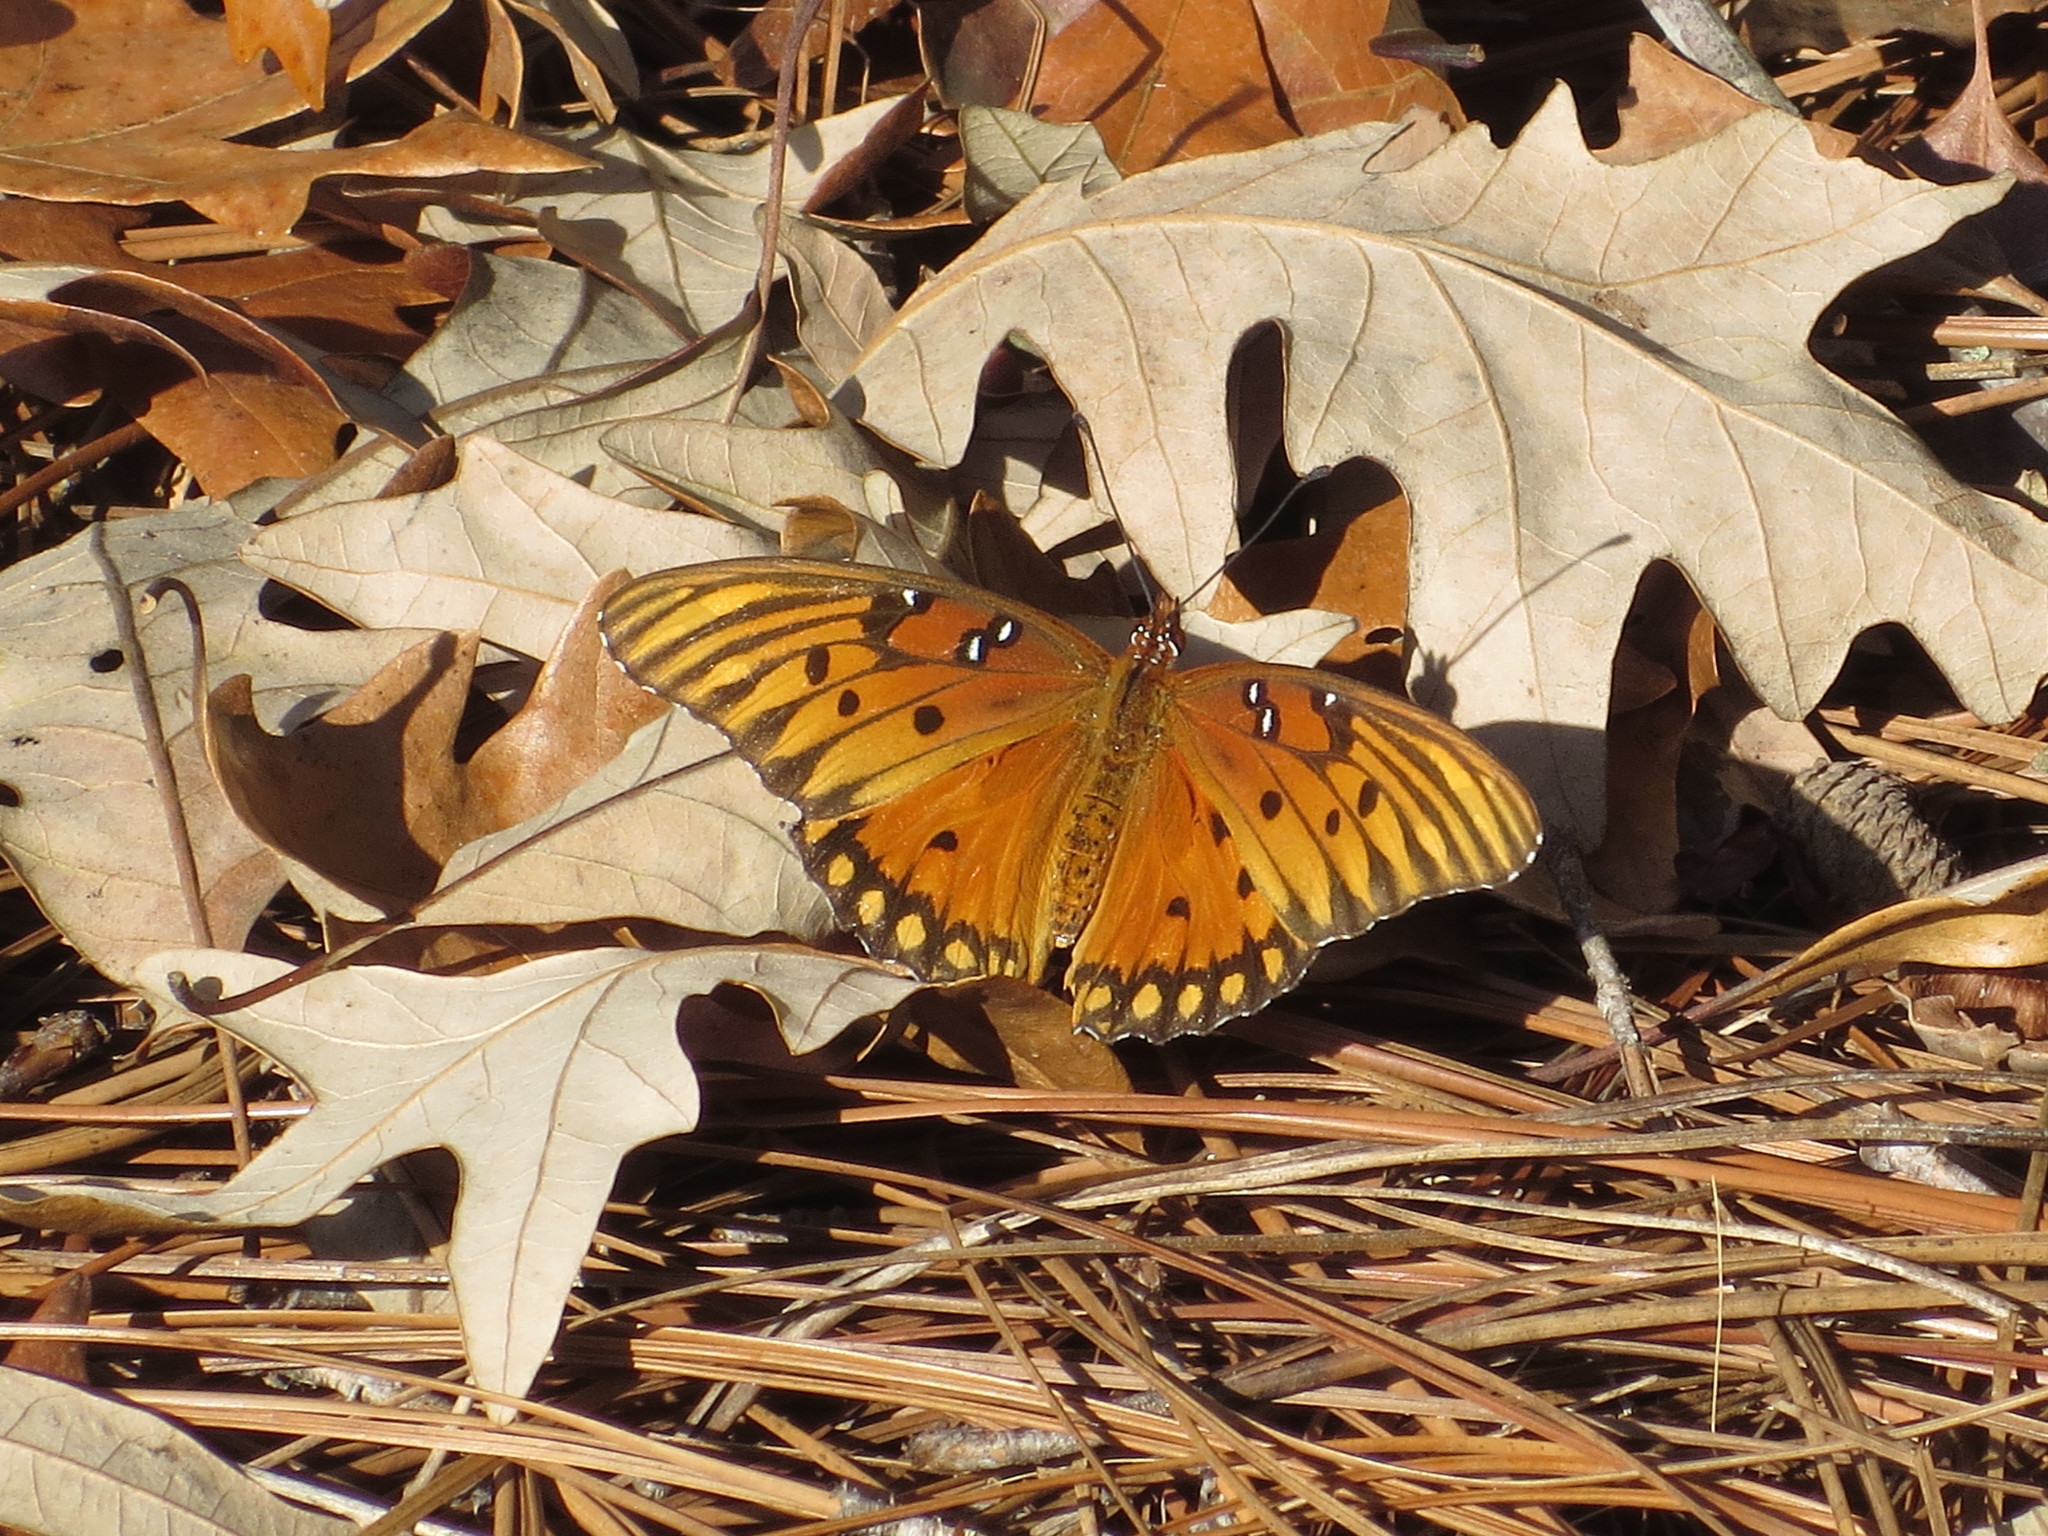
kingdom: Animalia
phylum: Arthropoda
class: Insecta
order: Lepidoptera
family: Nymphalidae
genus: Dione
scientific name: Dione vanillae
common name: Gulf fritillary
